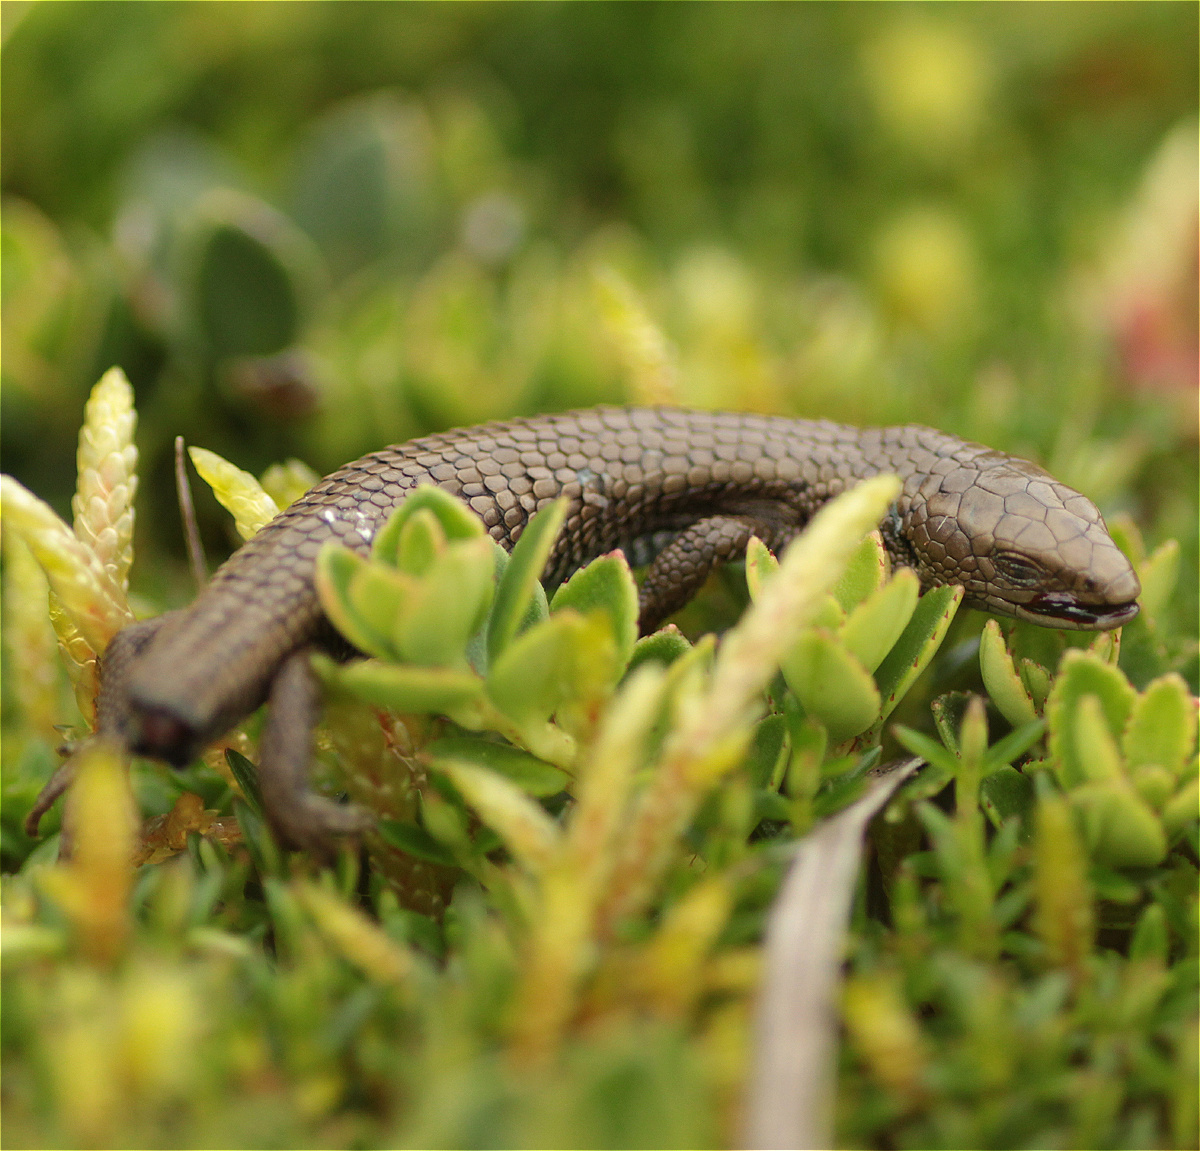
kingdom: Animalia
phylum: Chordata
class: Squamata
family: Gymnophthalmidae
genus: Anadia
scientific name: Anadia bogotensis
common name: Bogota anadia
